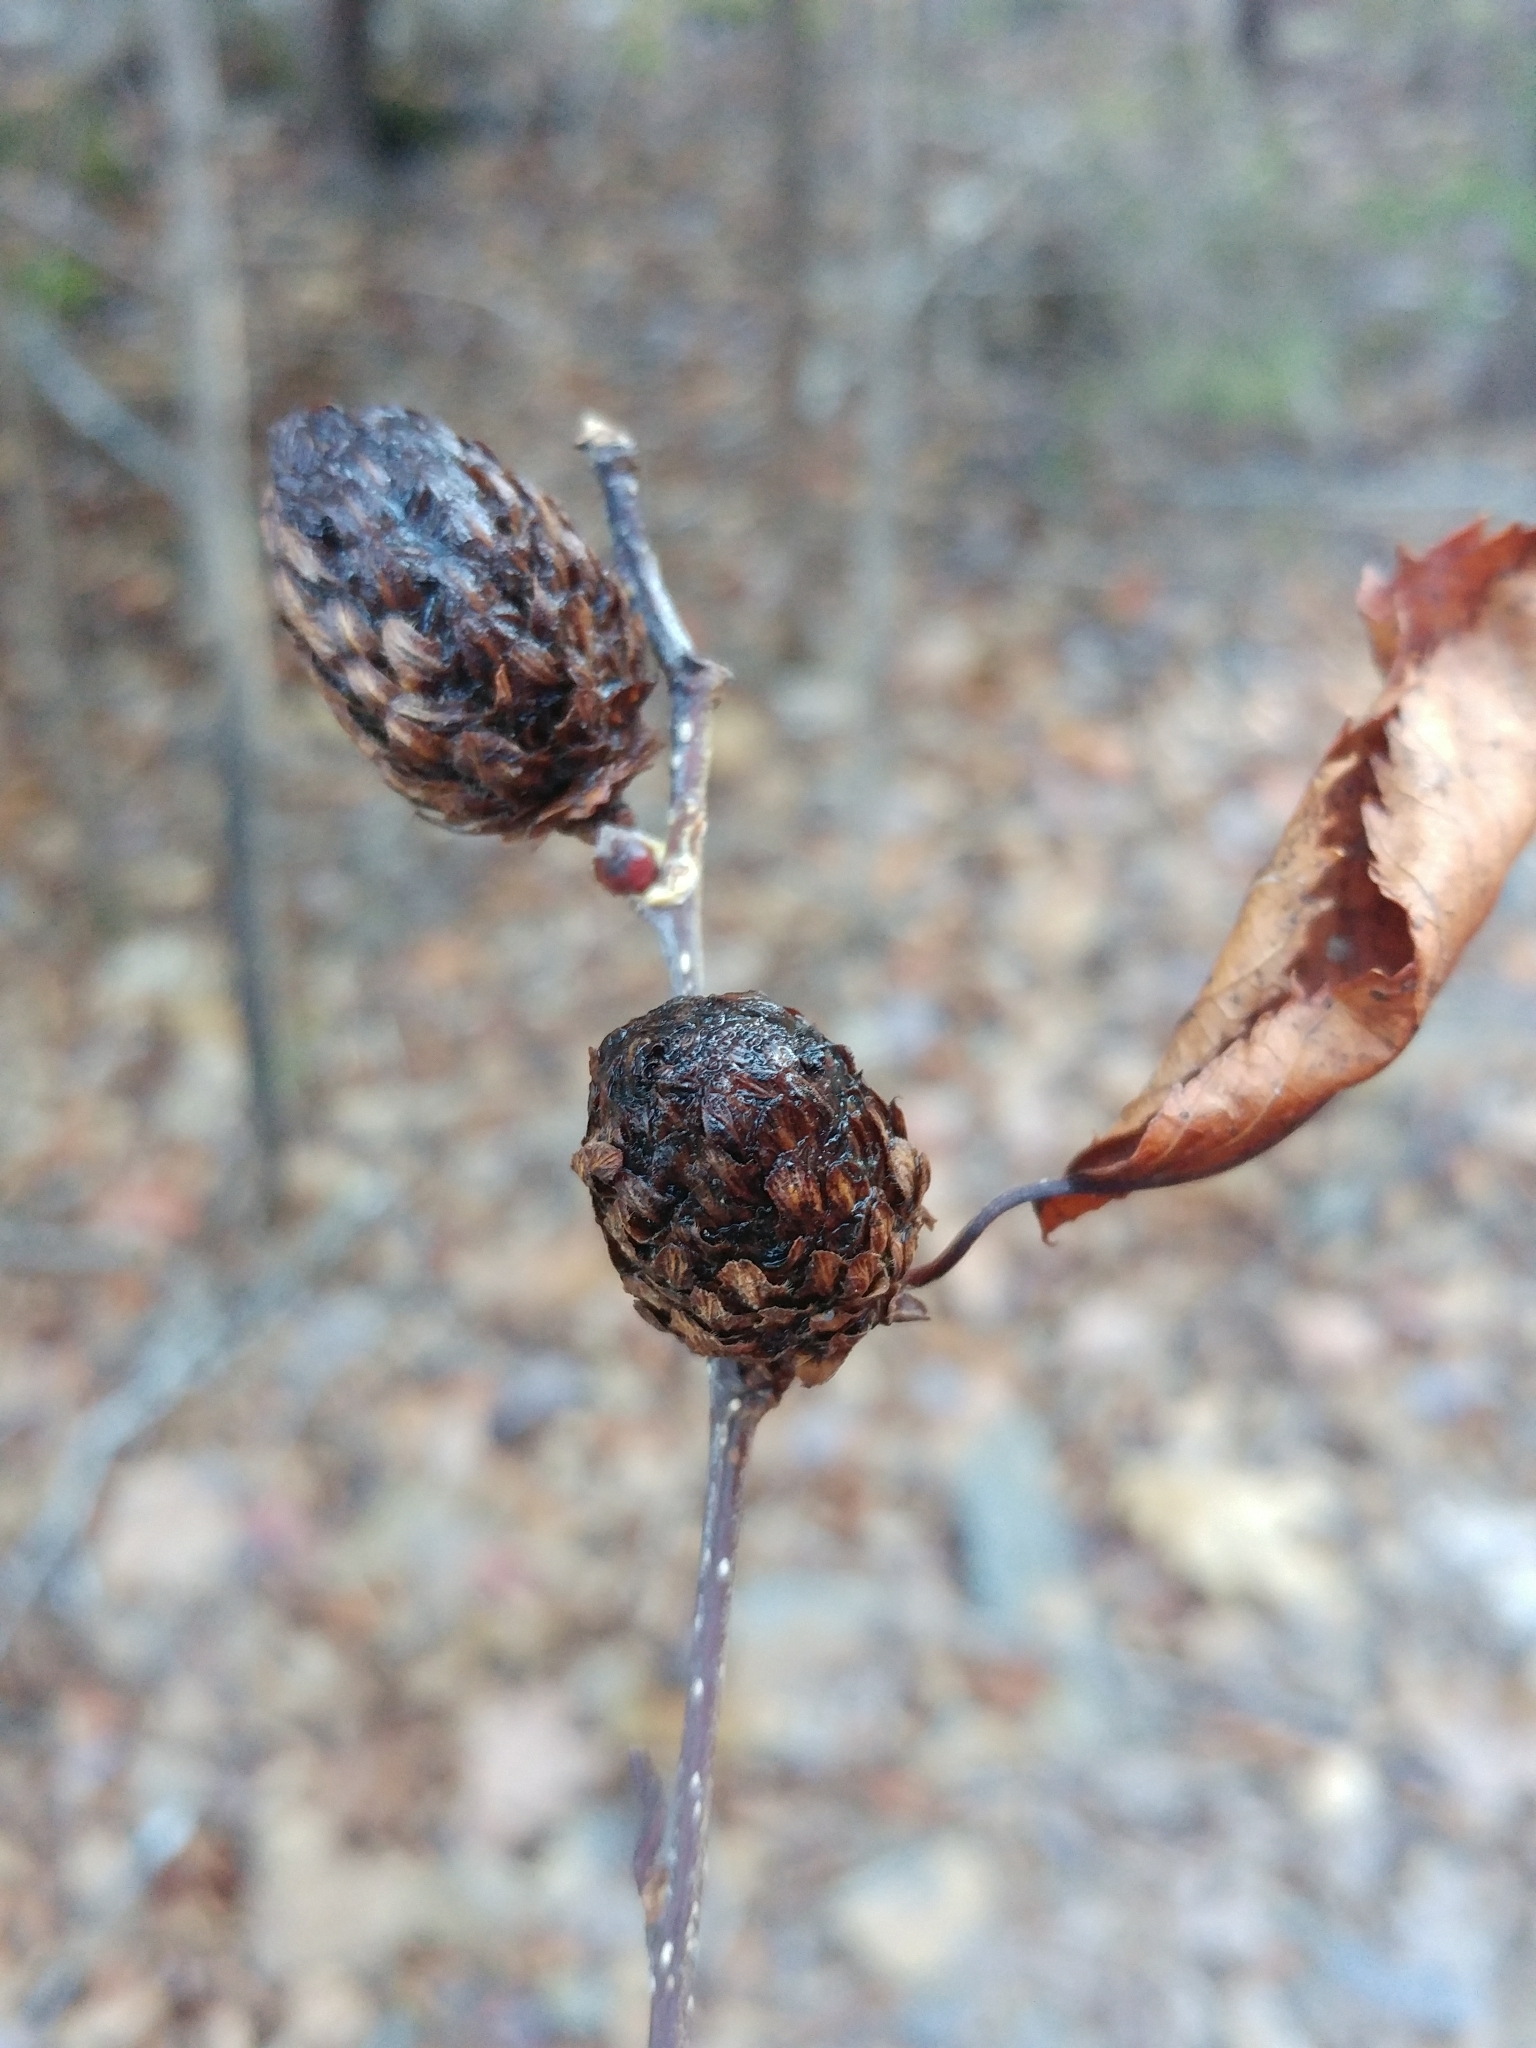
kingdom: Plantae
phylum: Tracheophyta
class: Magnoliopsida
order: Fagales
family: Betulaceae
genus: Betula
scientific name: Betula alleghaniensis
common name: Yellow birch
